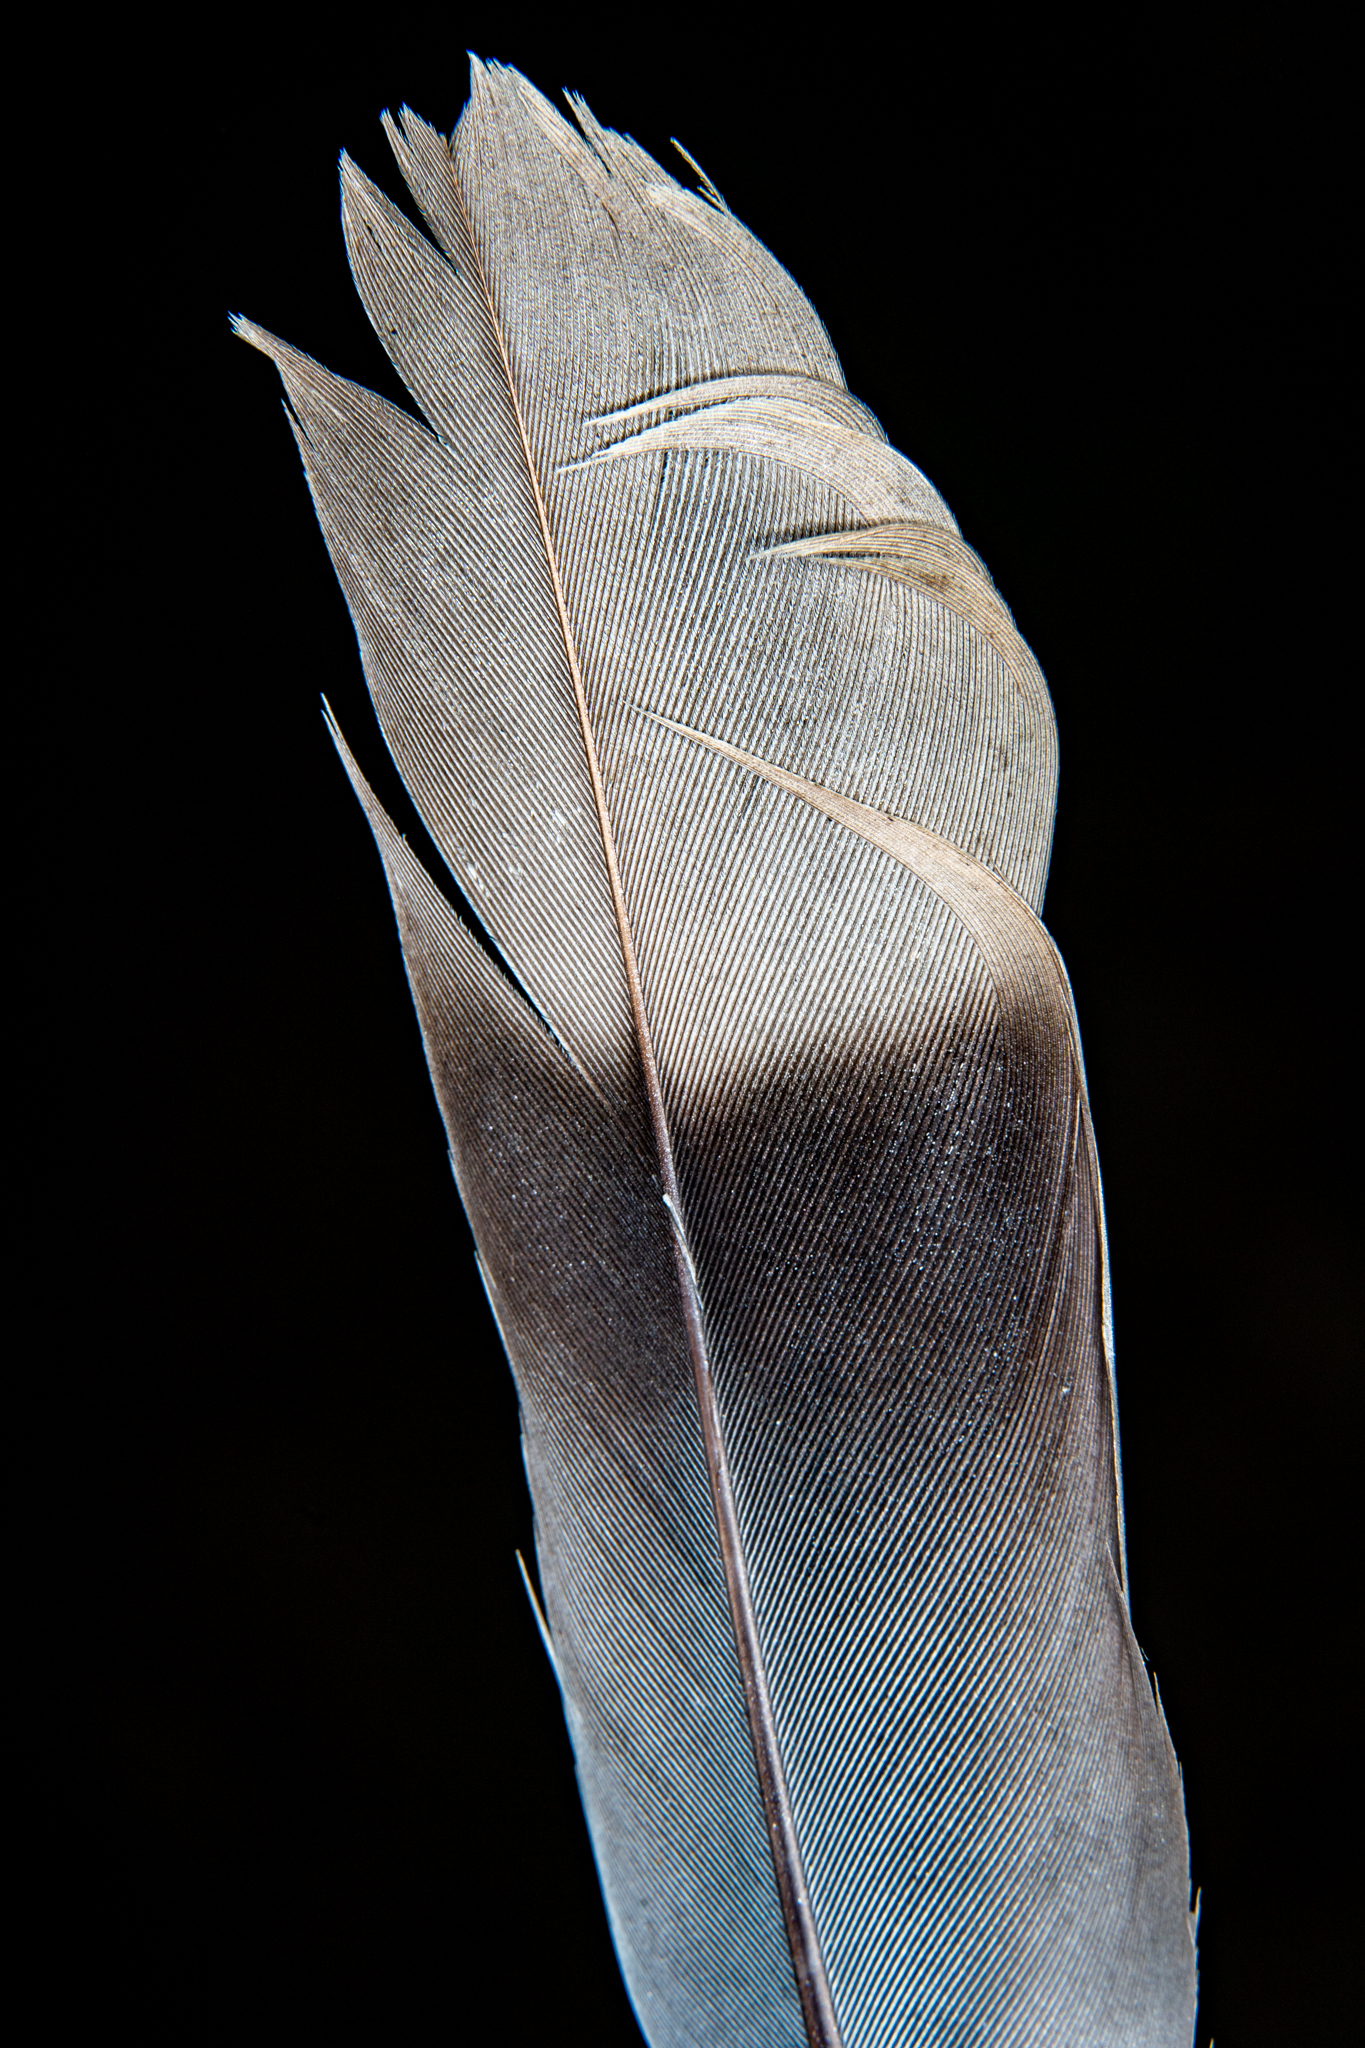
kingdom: Animalia
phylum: Chordata
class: Aves
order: Columbiformes
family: Columbidae
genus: Patagioenas
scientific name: Patagioenas fasciata
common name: Band-tailed pigeon
